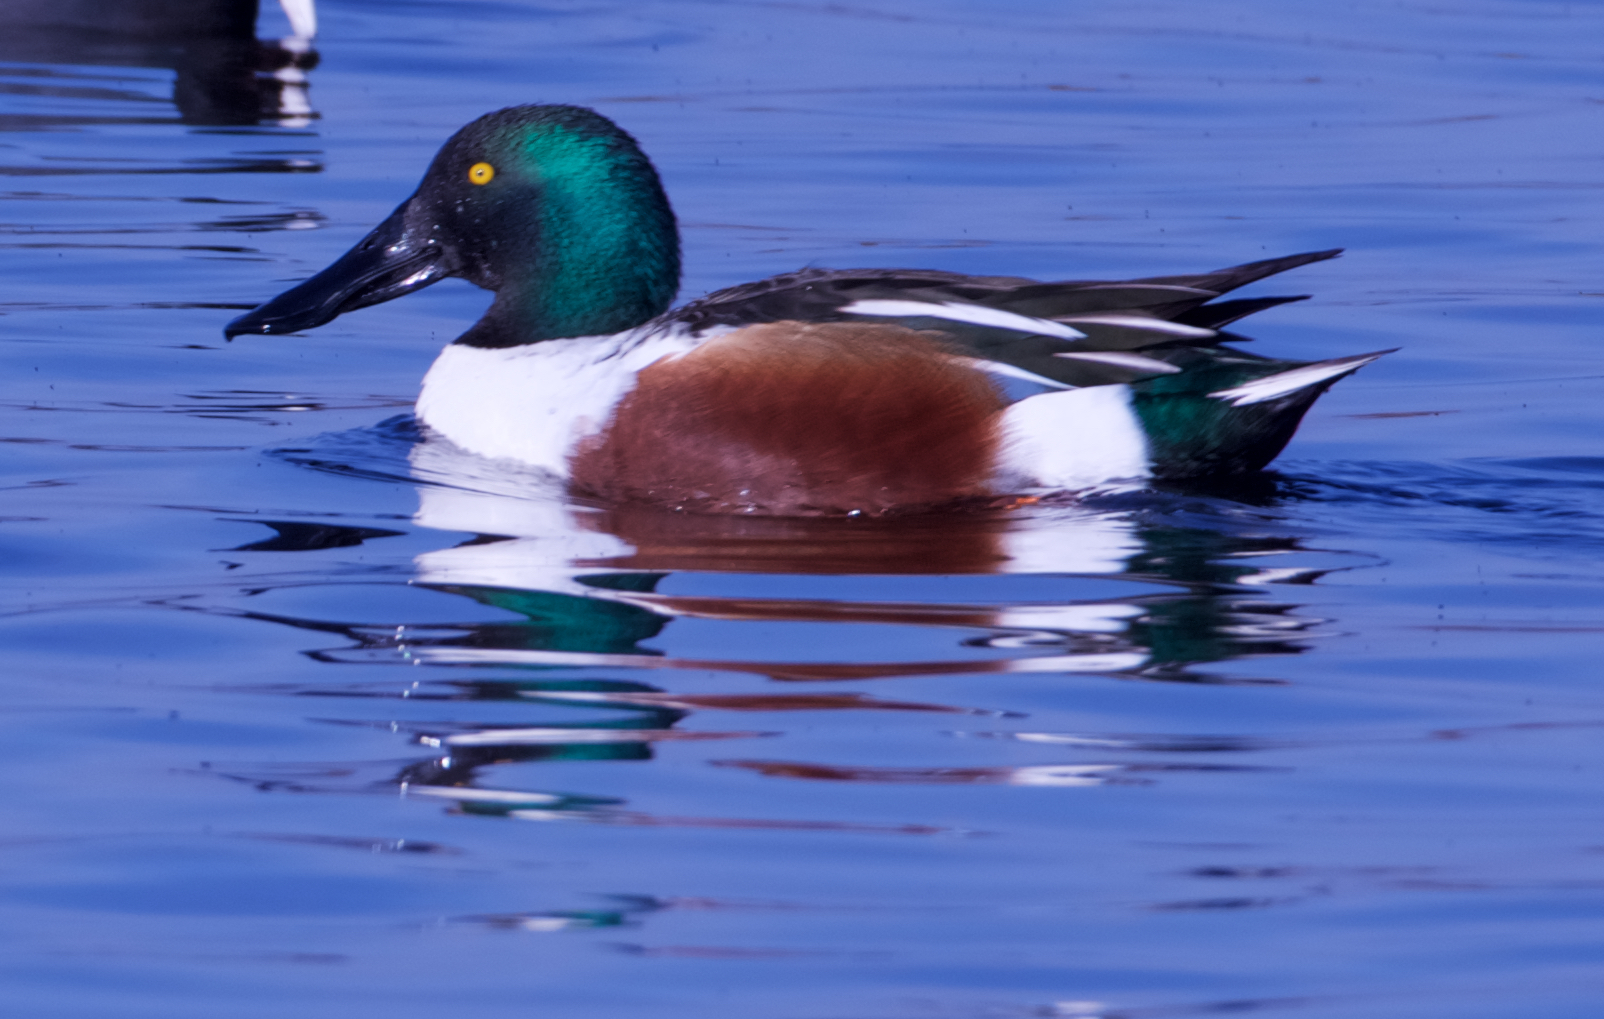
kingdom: Animalia
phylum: Chordata
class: Aves
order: Anseriformes
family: Anatidae
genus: Spatula
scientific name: Spatula clypeata
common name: Northern shoveler
